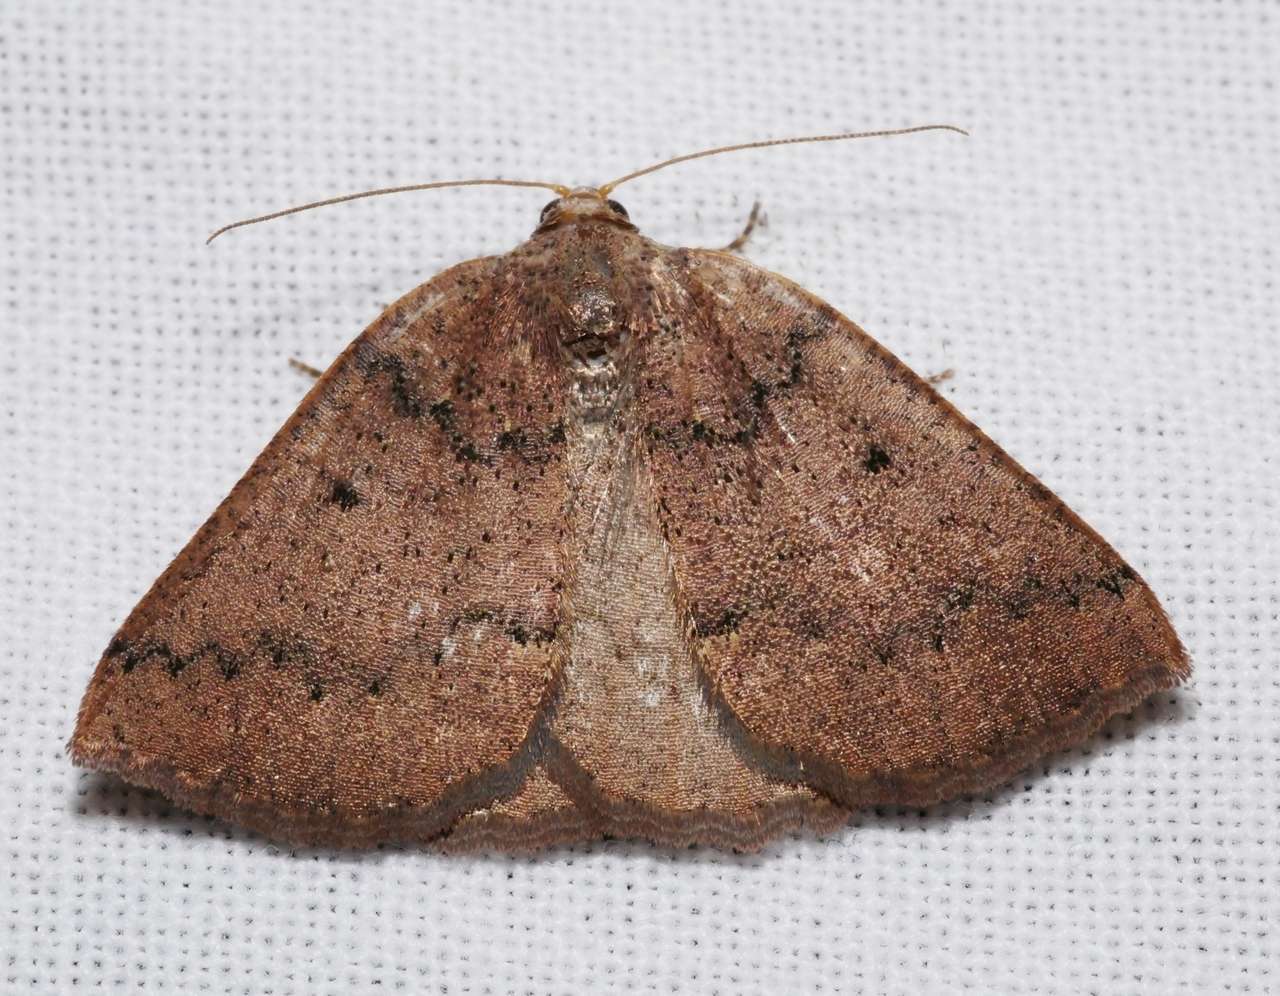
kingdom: Animalia
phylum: Arthropoda
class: Insecta
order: Lepidoptera
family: Geometridae
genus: Furcatrox
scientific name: Furcatrox furneauxi
